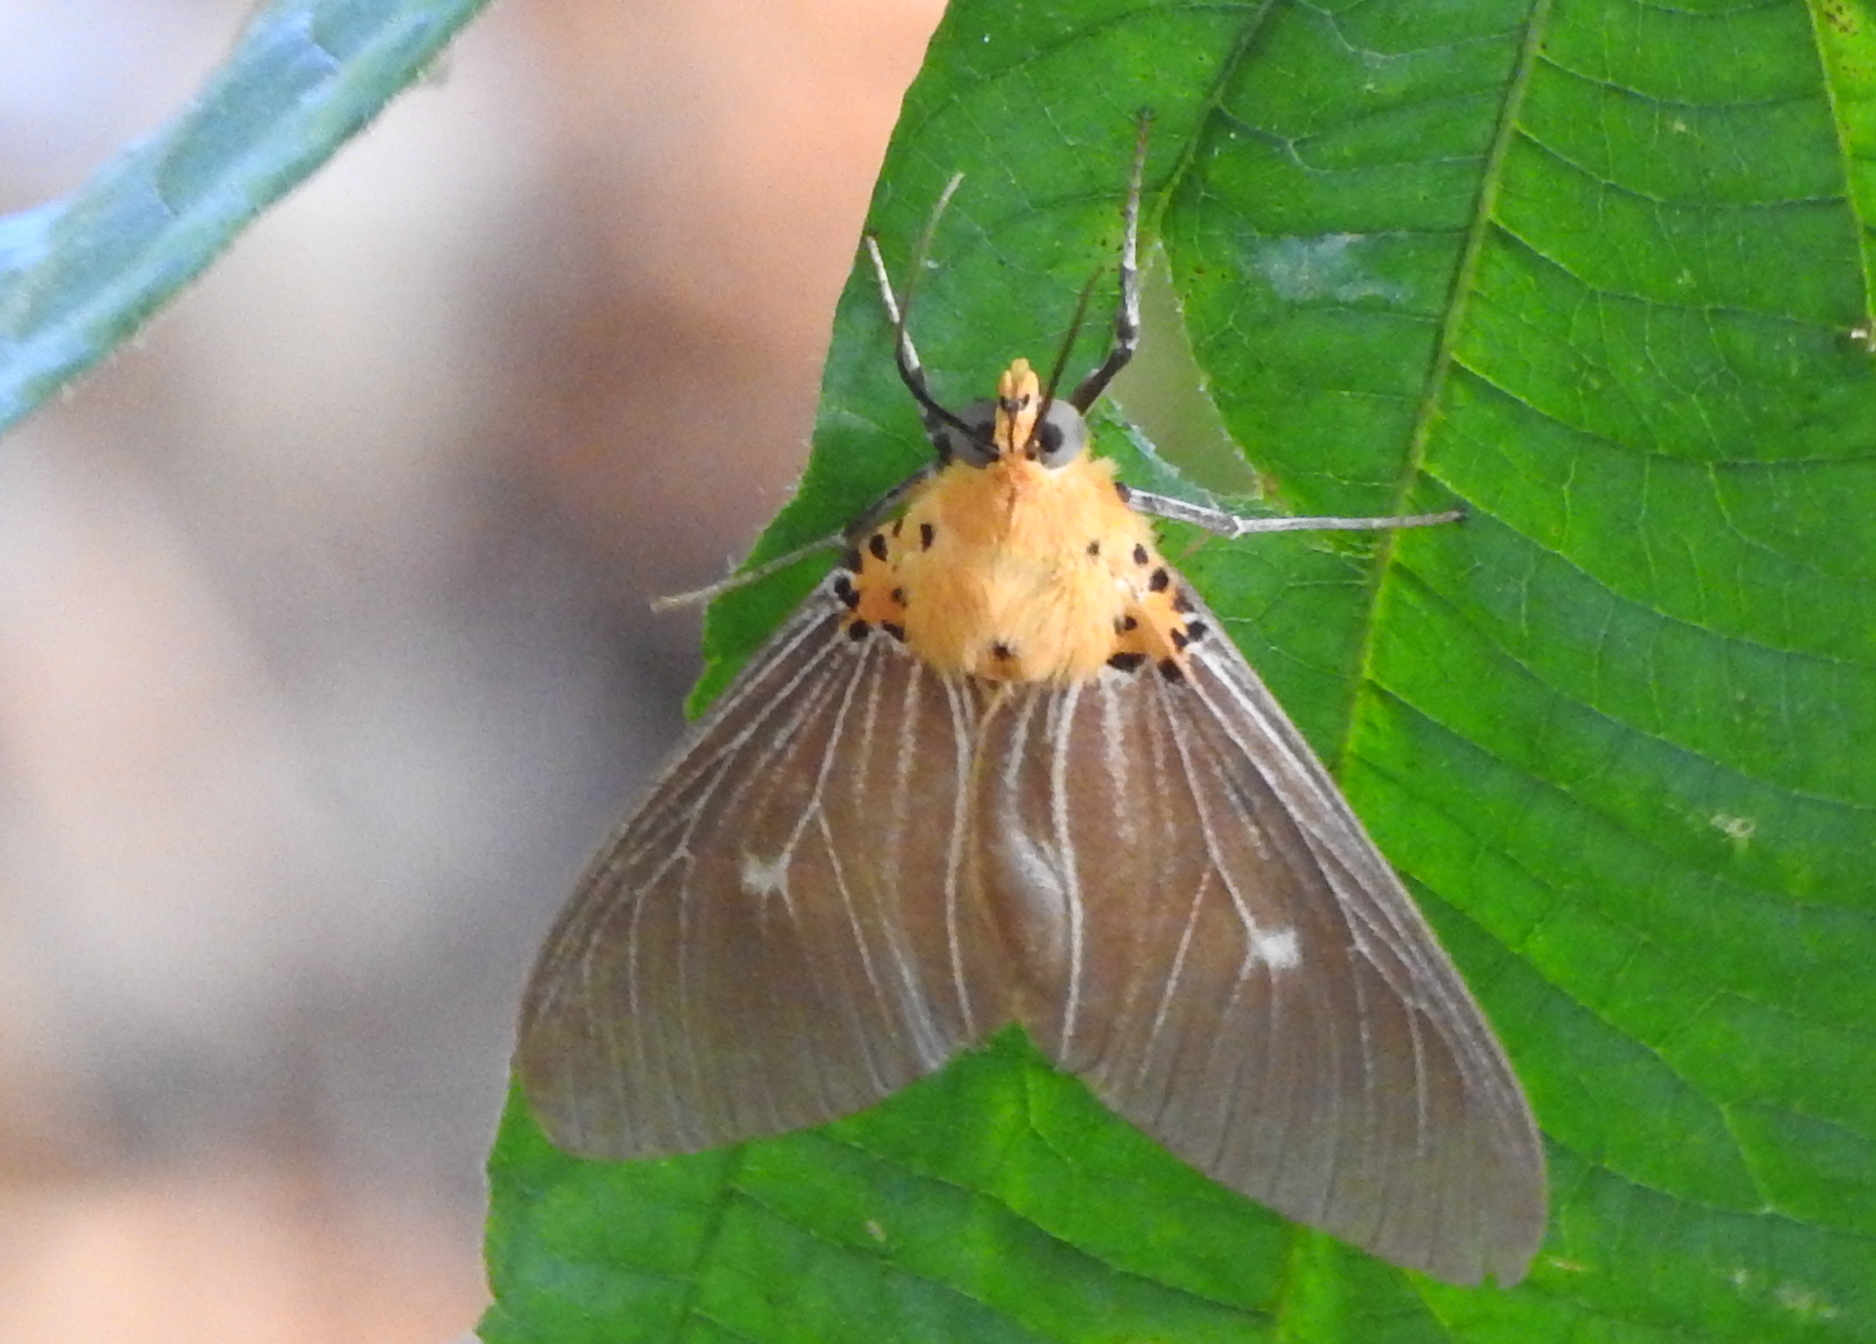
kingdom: Animalia
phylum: Arthropoda
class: Insecta
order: Lepidoptera
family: Erebidae
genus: Asota
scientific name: Asota caricae
